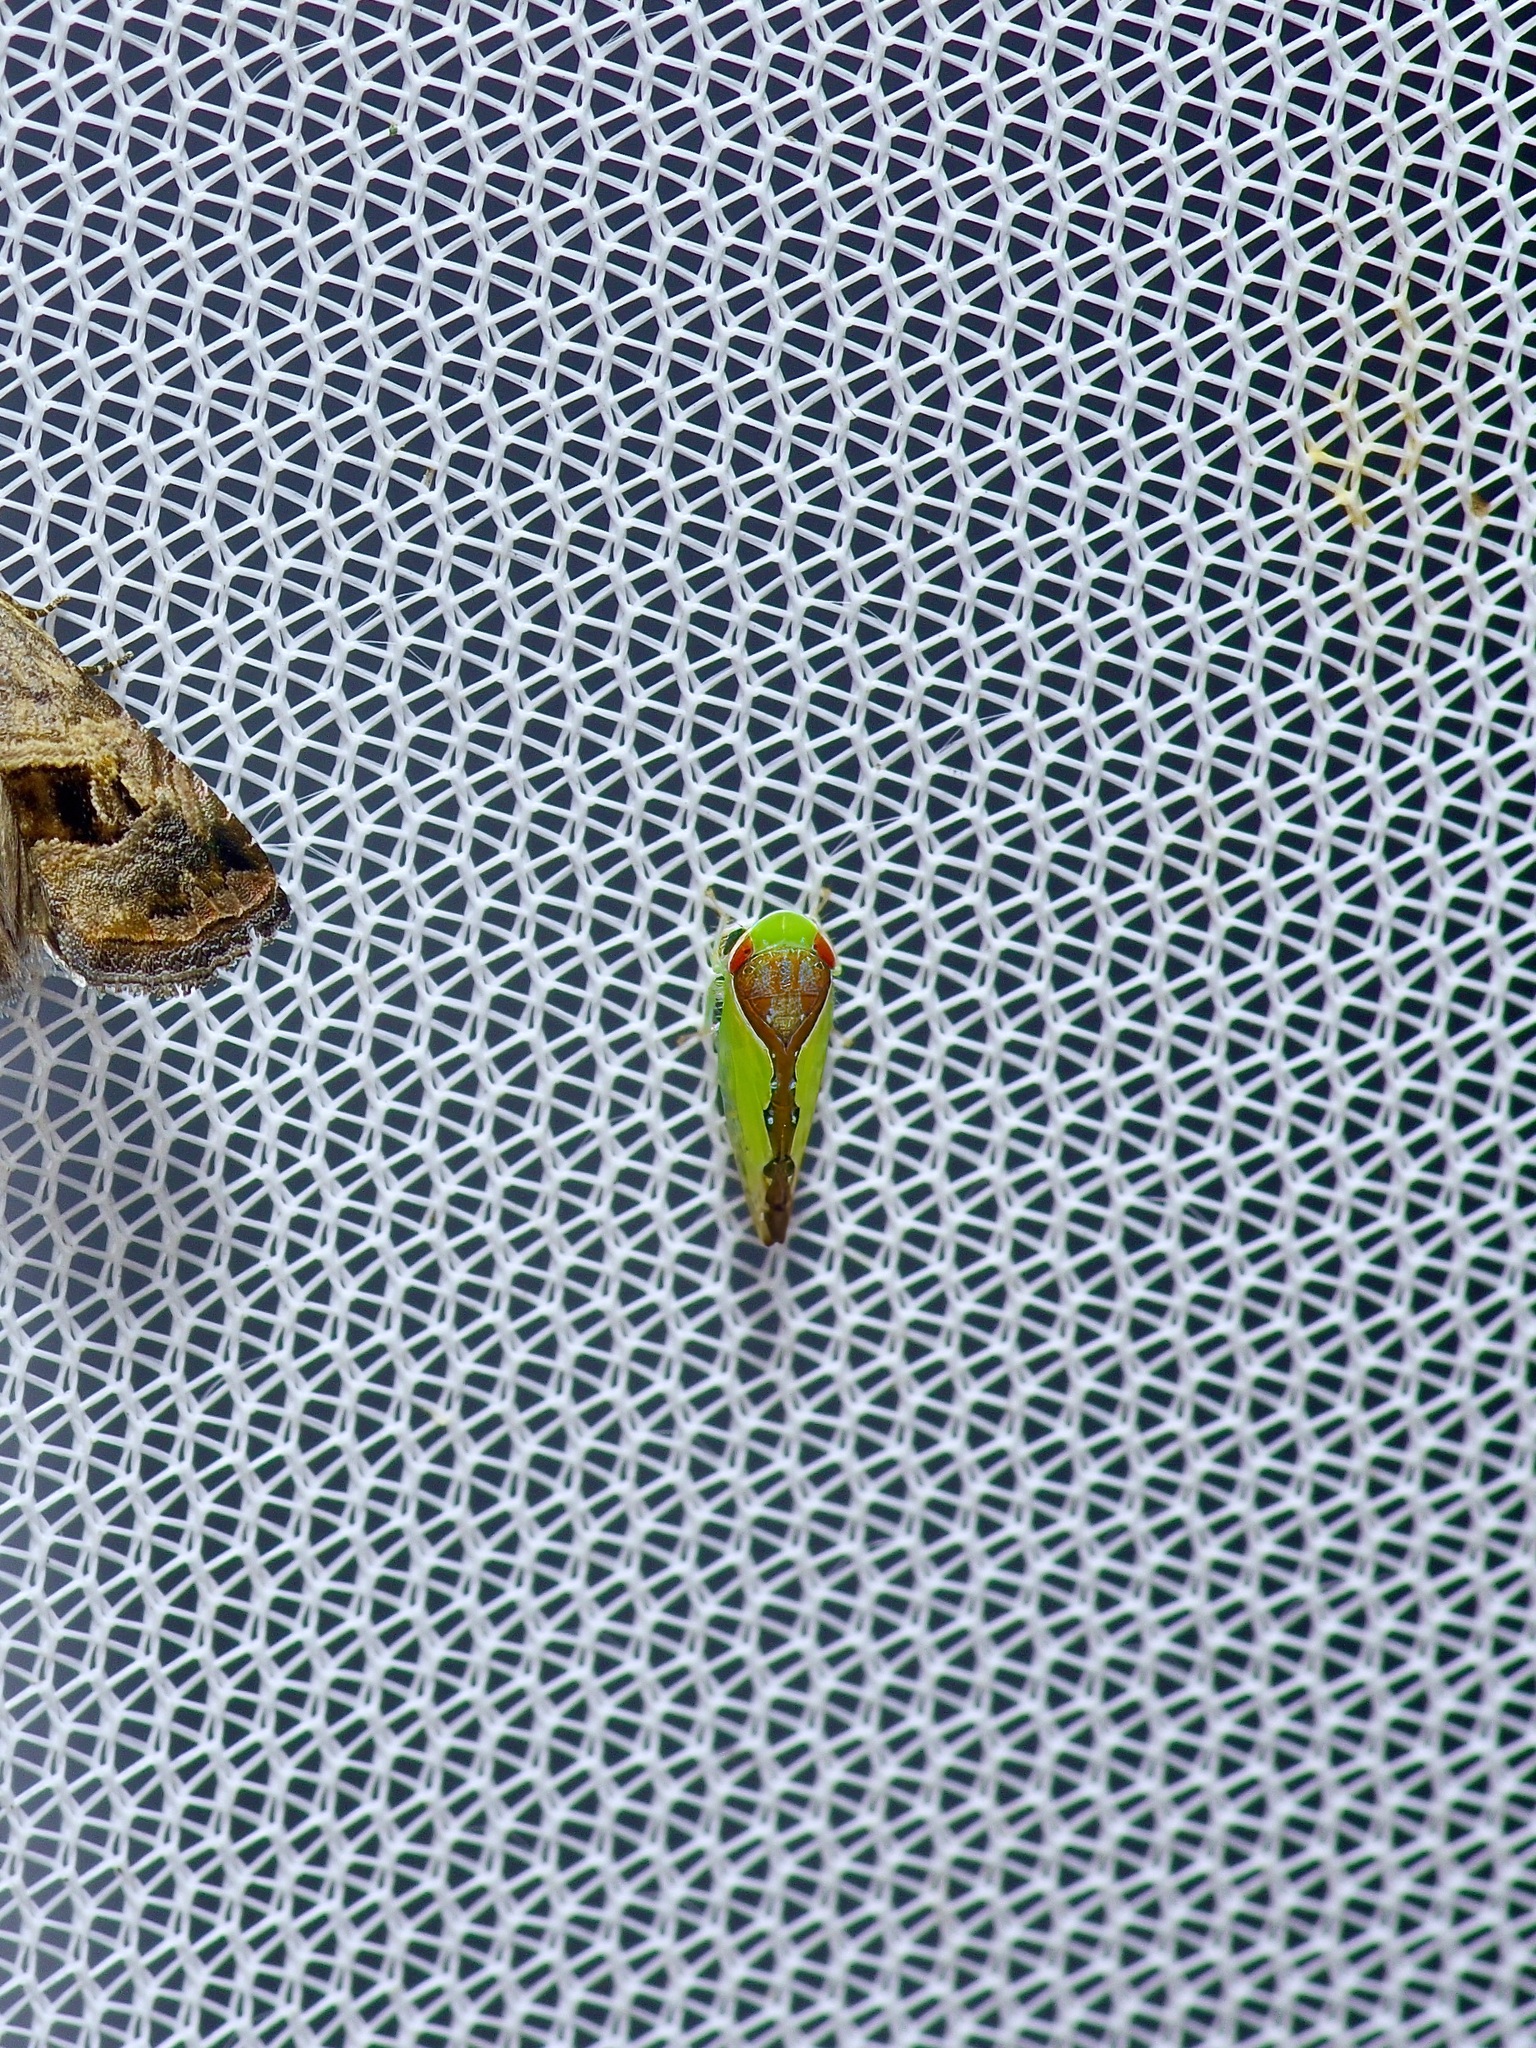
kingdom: Animalia
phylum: Arthropoda
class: Insecta
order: Hemiptera
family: Cicadellidae
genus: Omansobara ing
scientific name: Omansobara ing Omansobara palliolata
